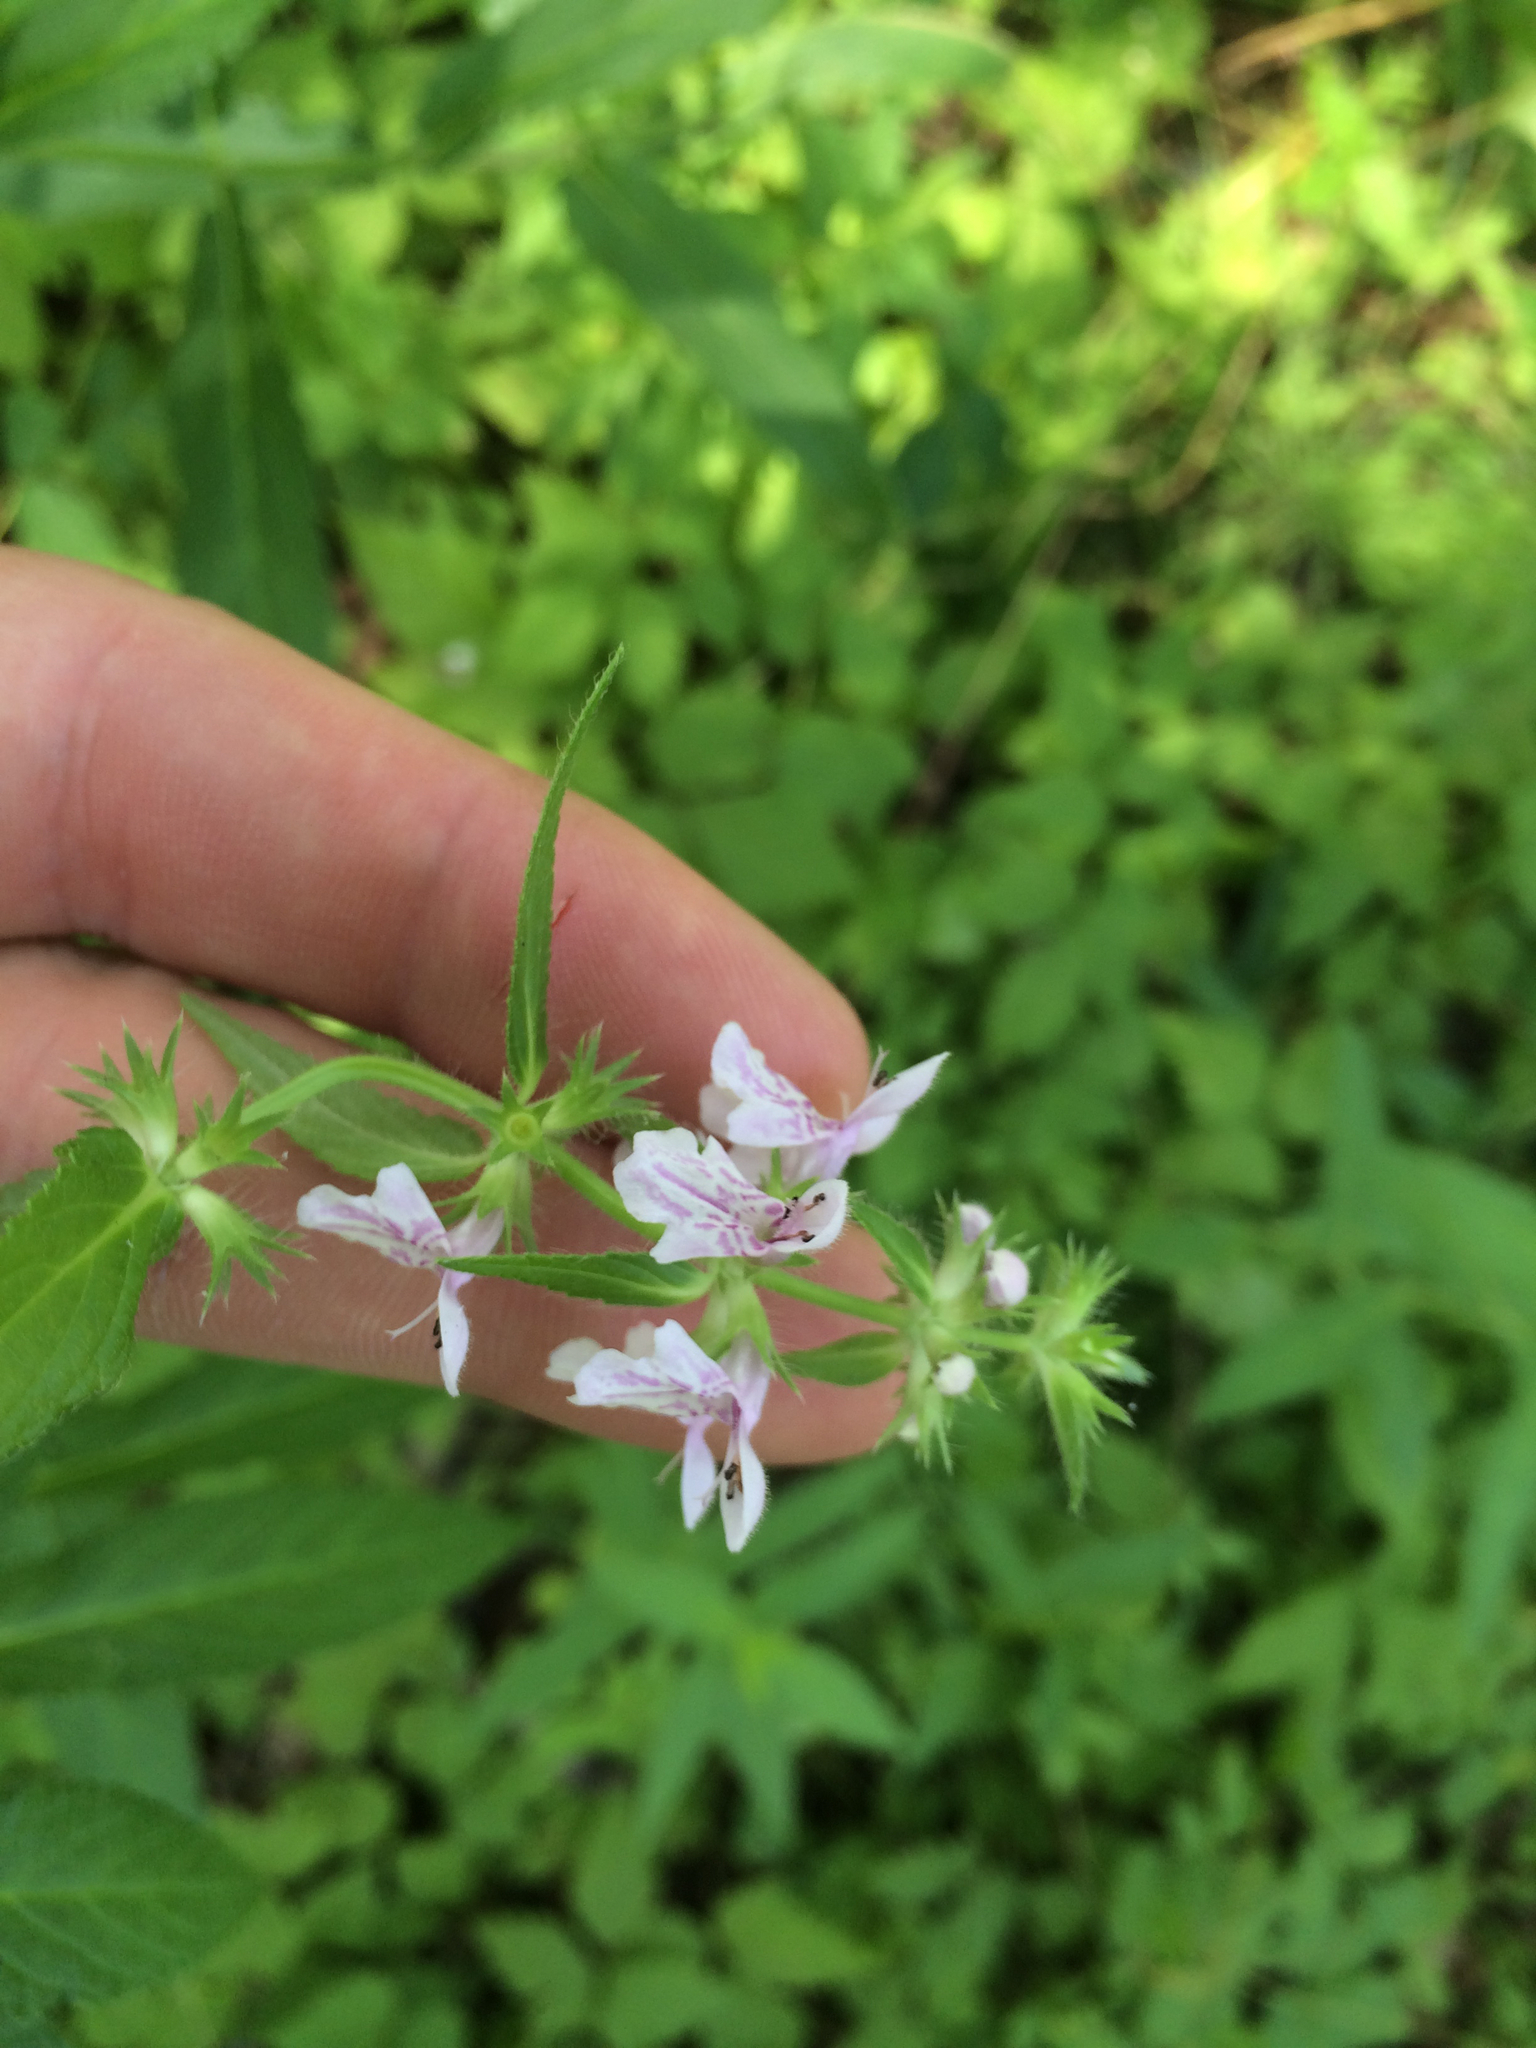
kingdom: Plantae
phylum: Tracheophyta
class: Magnoliopsida
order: Lamiales
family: Lamiaceae
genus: Stachys
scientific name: Stachys hispida
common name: Hispid hedge-nettle
